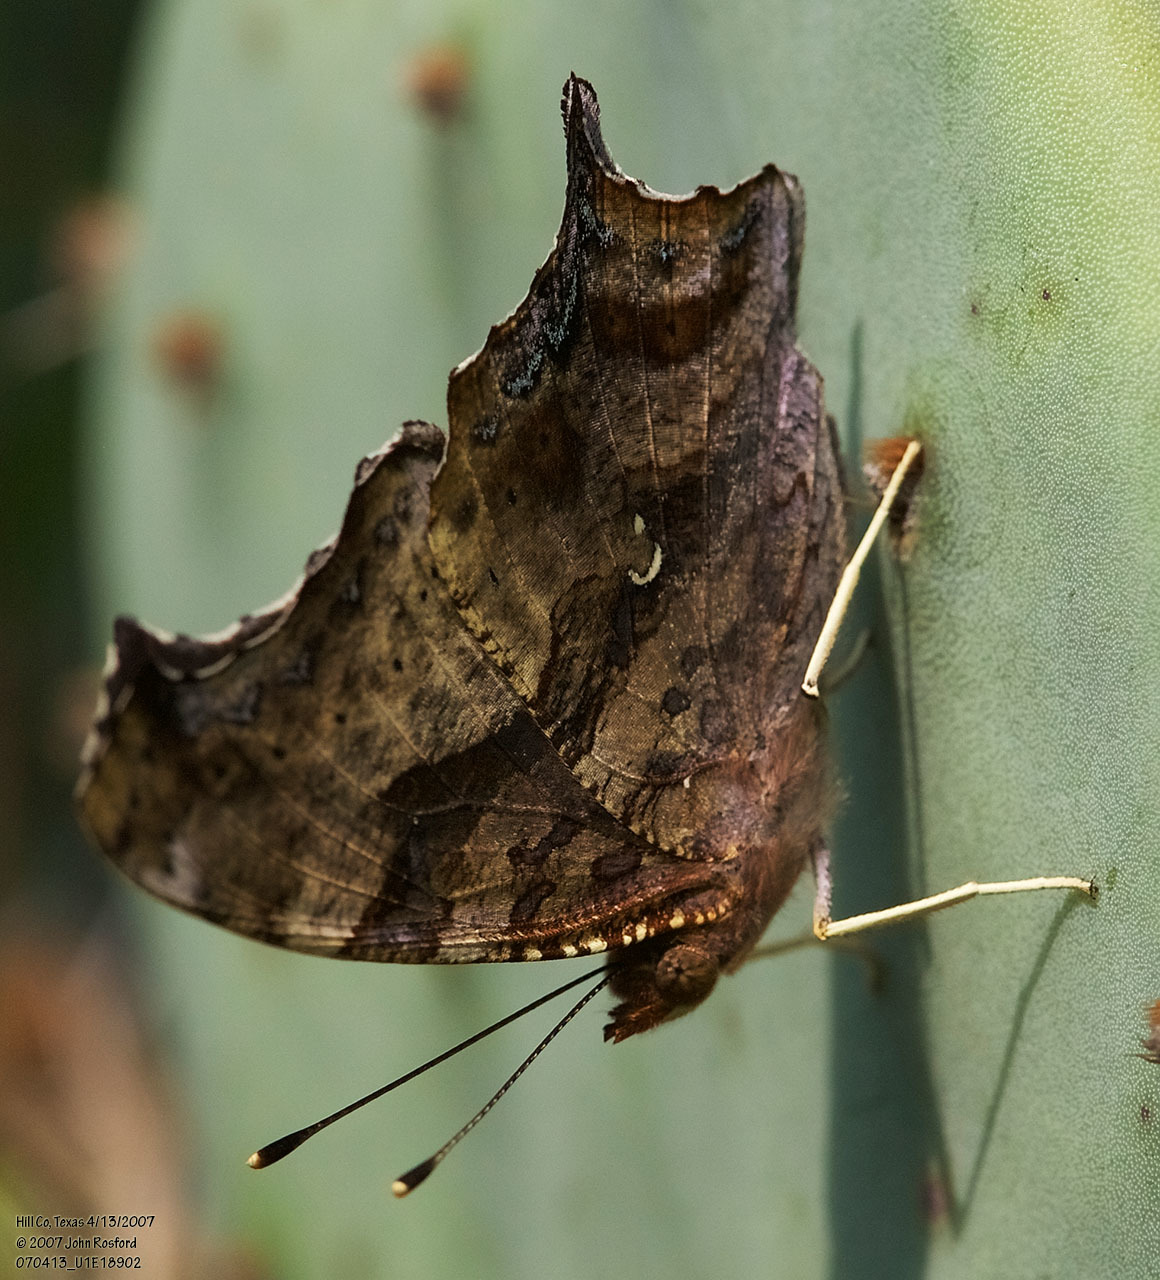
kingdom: Animalia
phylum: Arthropoda
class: Insecta
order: Lepidoptera
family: Nymphalidae
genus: Polygonia
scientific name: Polygonia interrogationis
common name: Question mark
